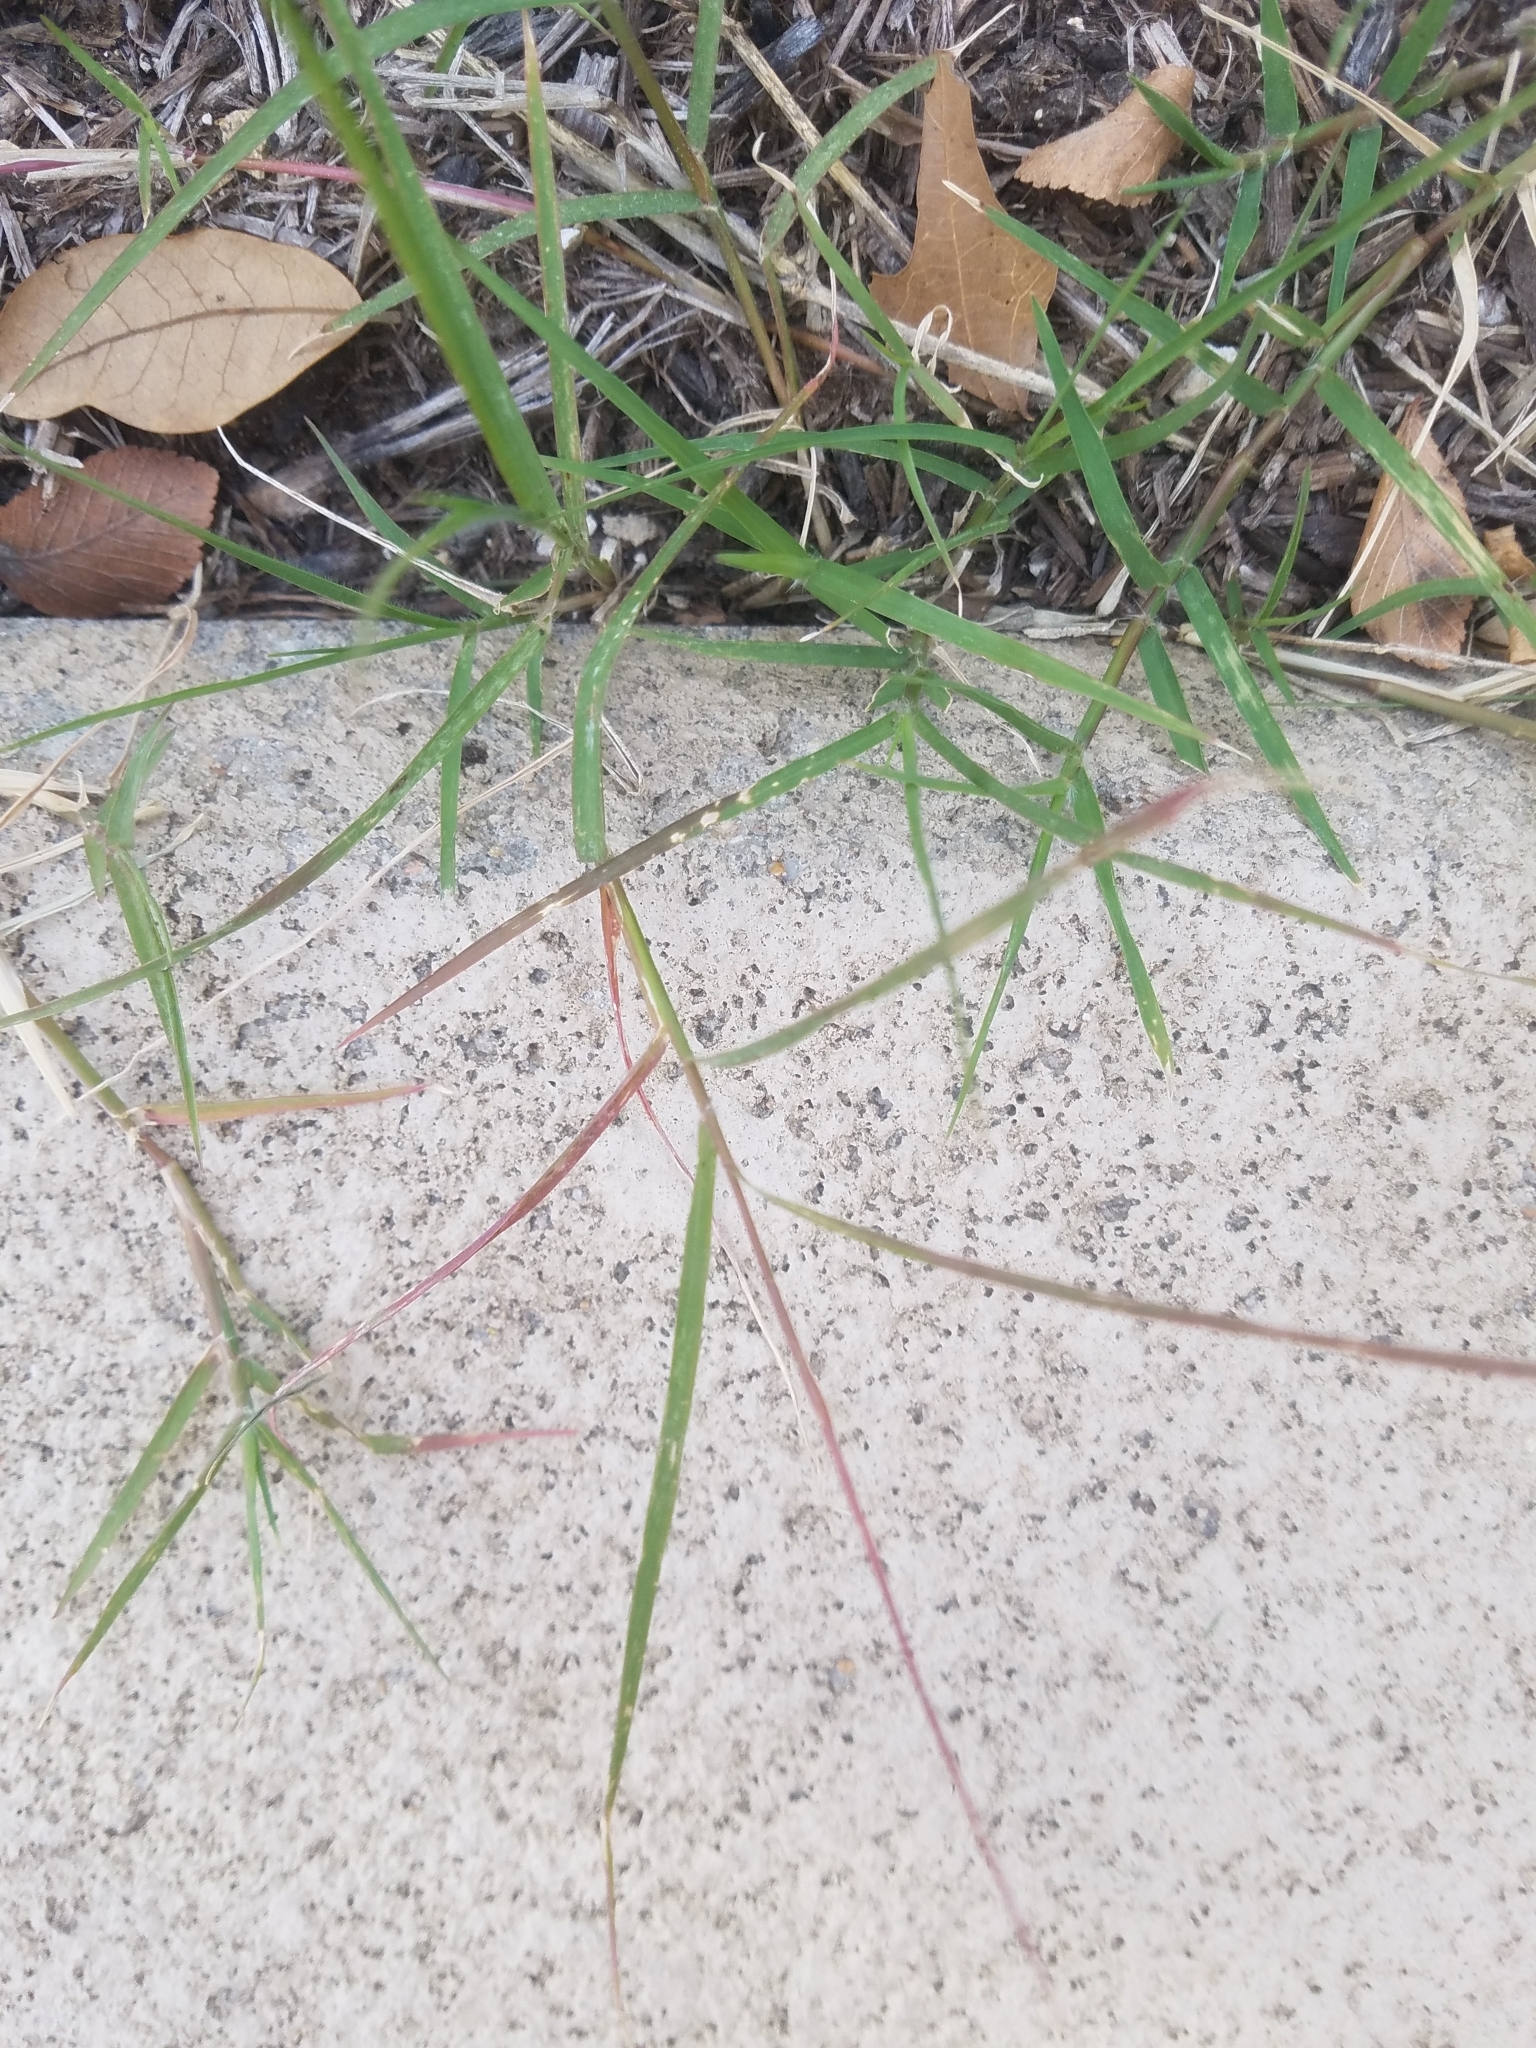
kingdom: Plantae
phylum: Tracheophyta
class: Liliopsida
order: Poales
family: Poaceae
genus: Cynodon
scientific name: Cynodon dactylon
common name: Bermuda grass
